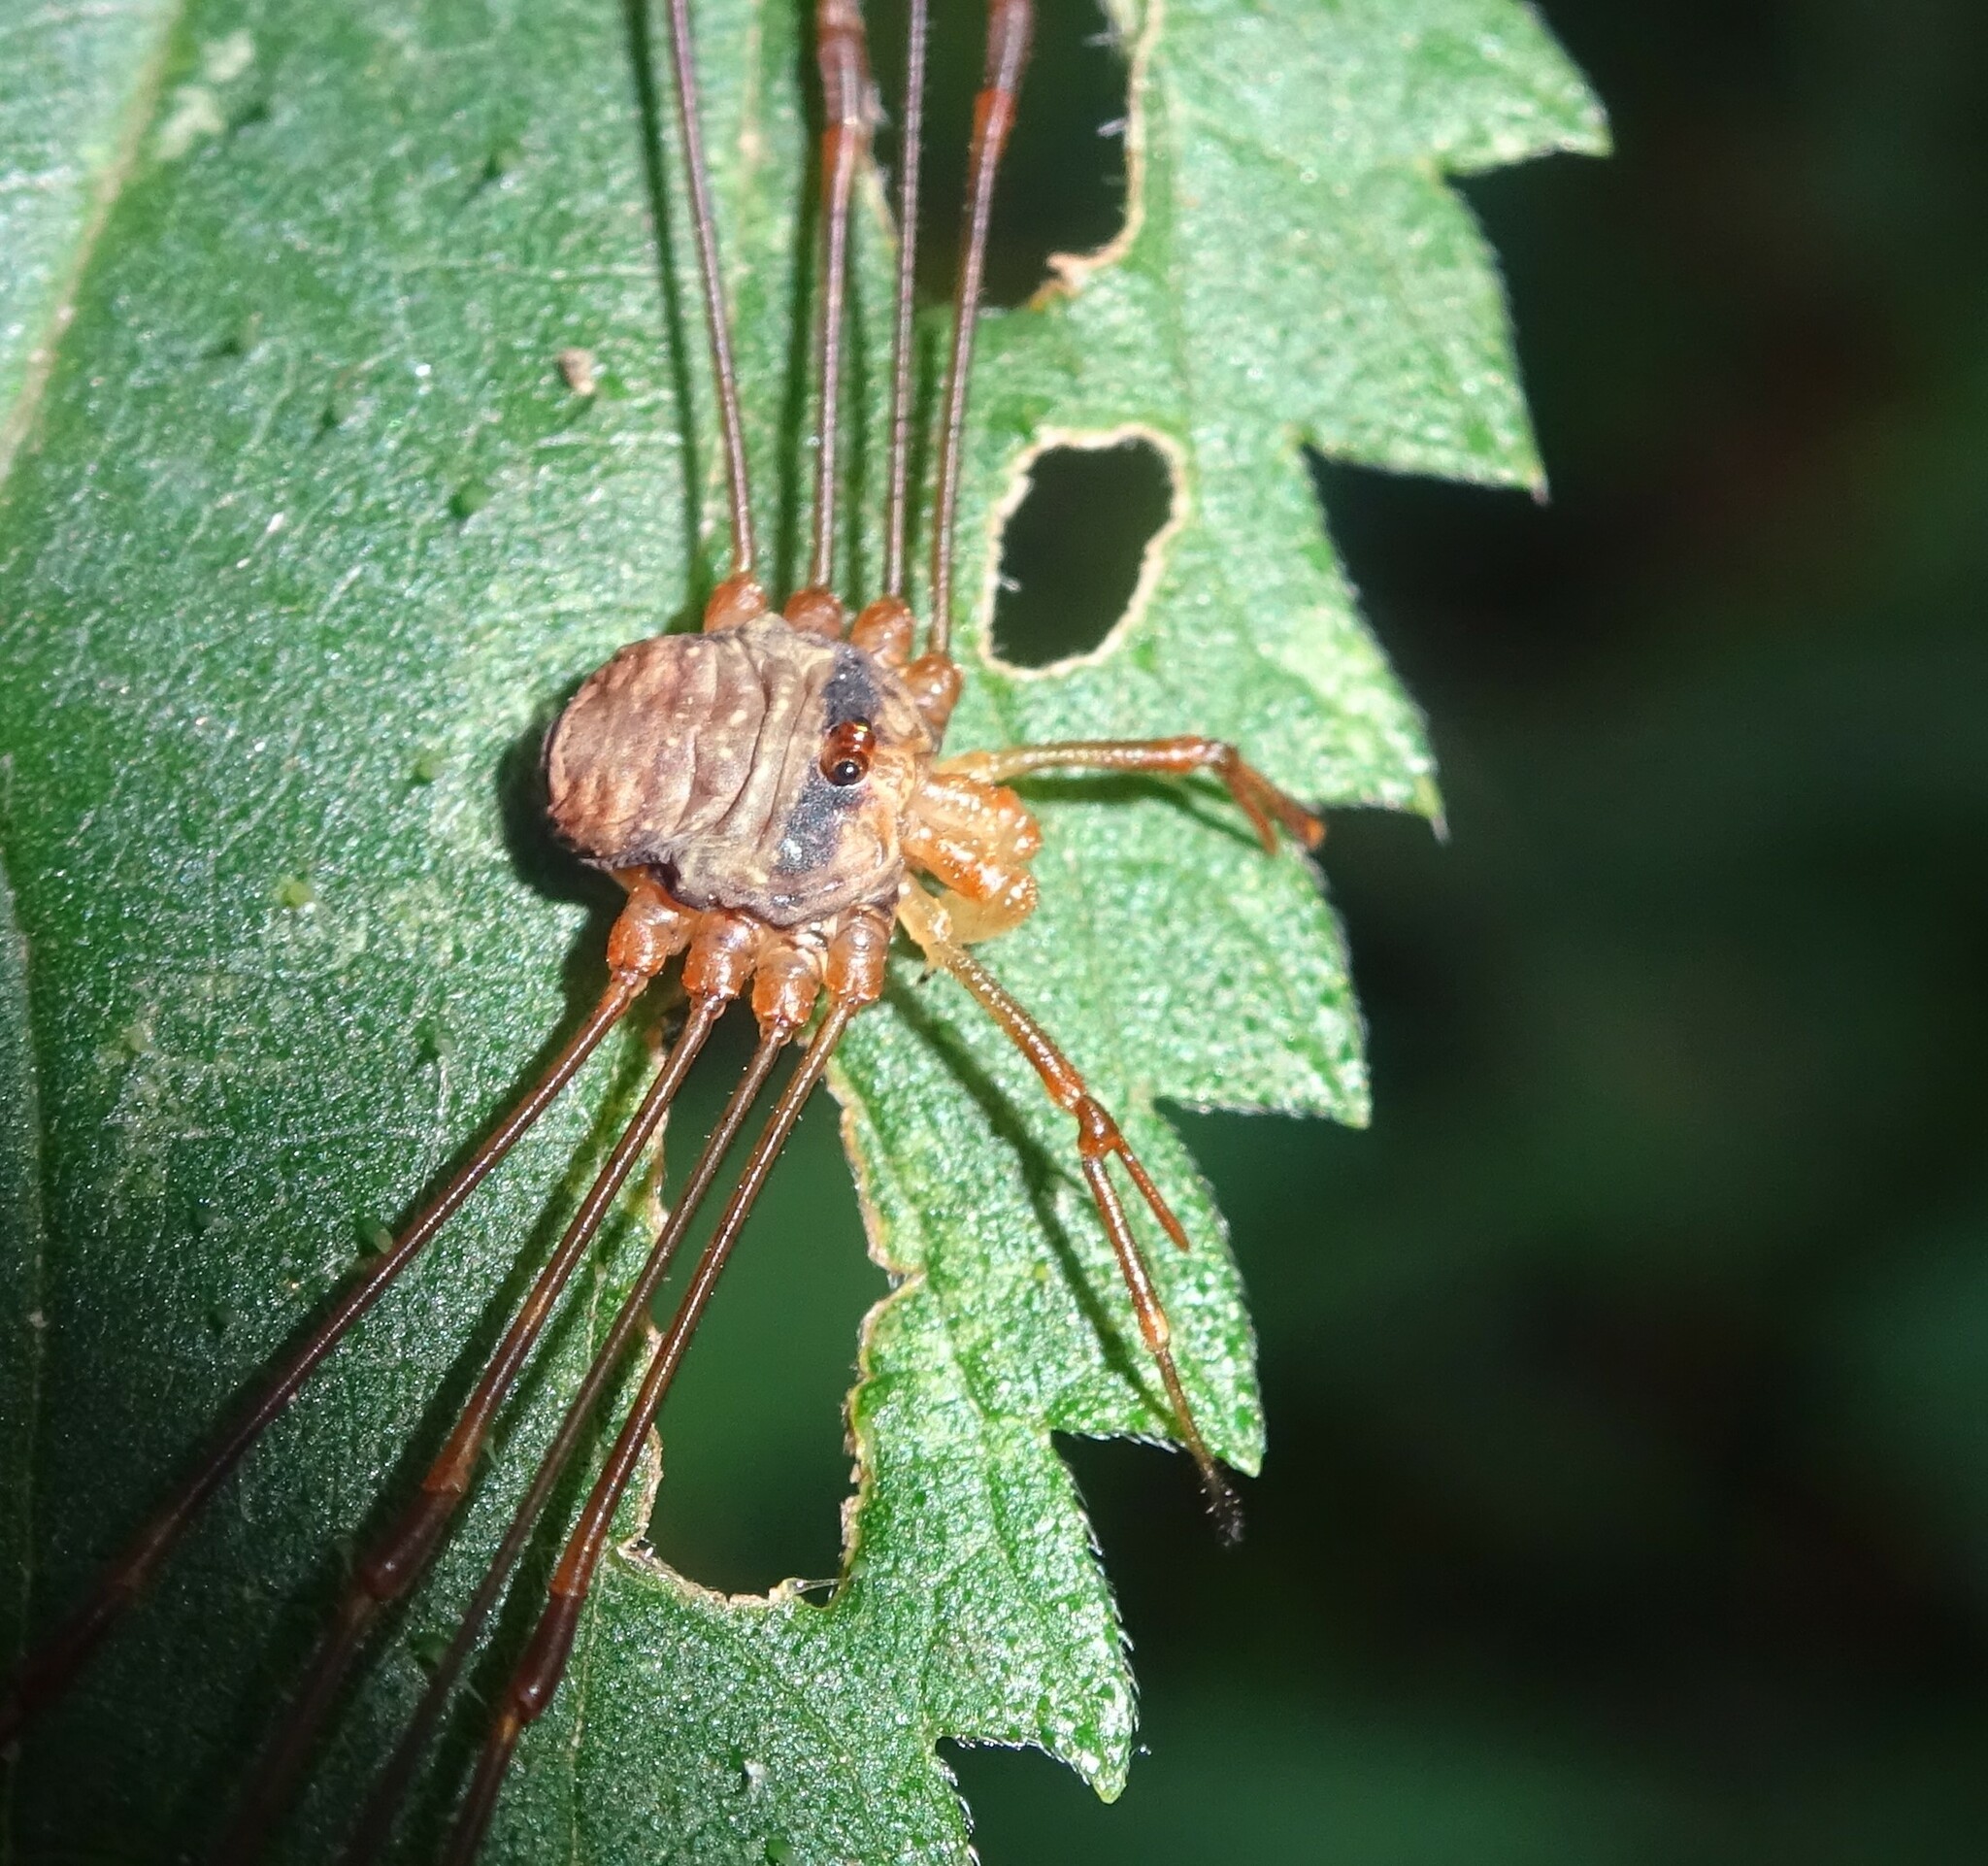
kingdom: Animalia
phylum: Arthropoda
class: Arachnida
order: Opiliones
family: Phalangiidae
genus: Dicranopalpus
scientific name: Dicranopalpus ramosus
